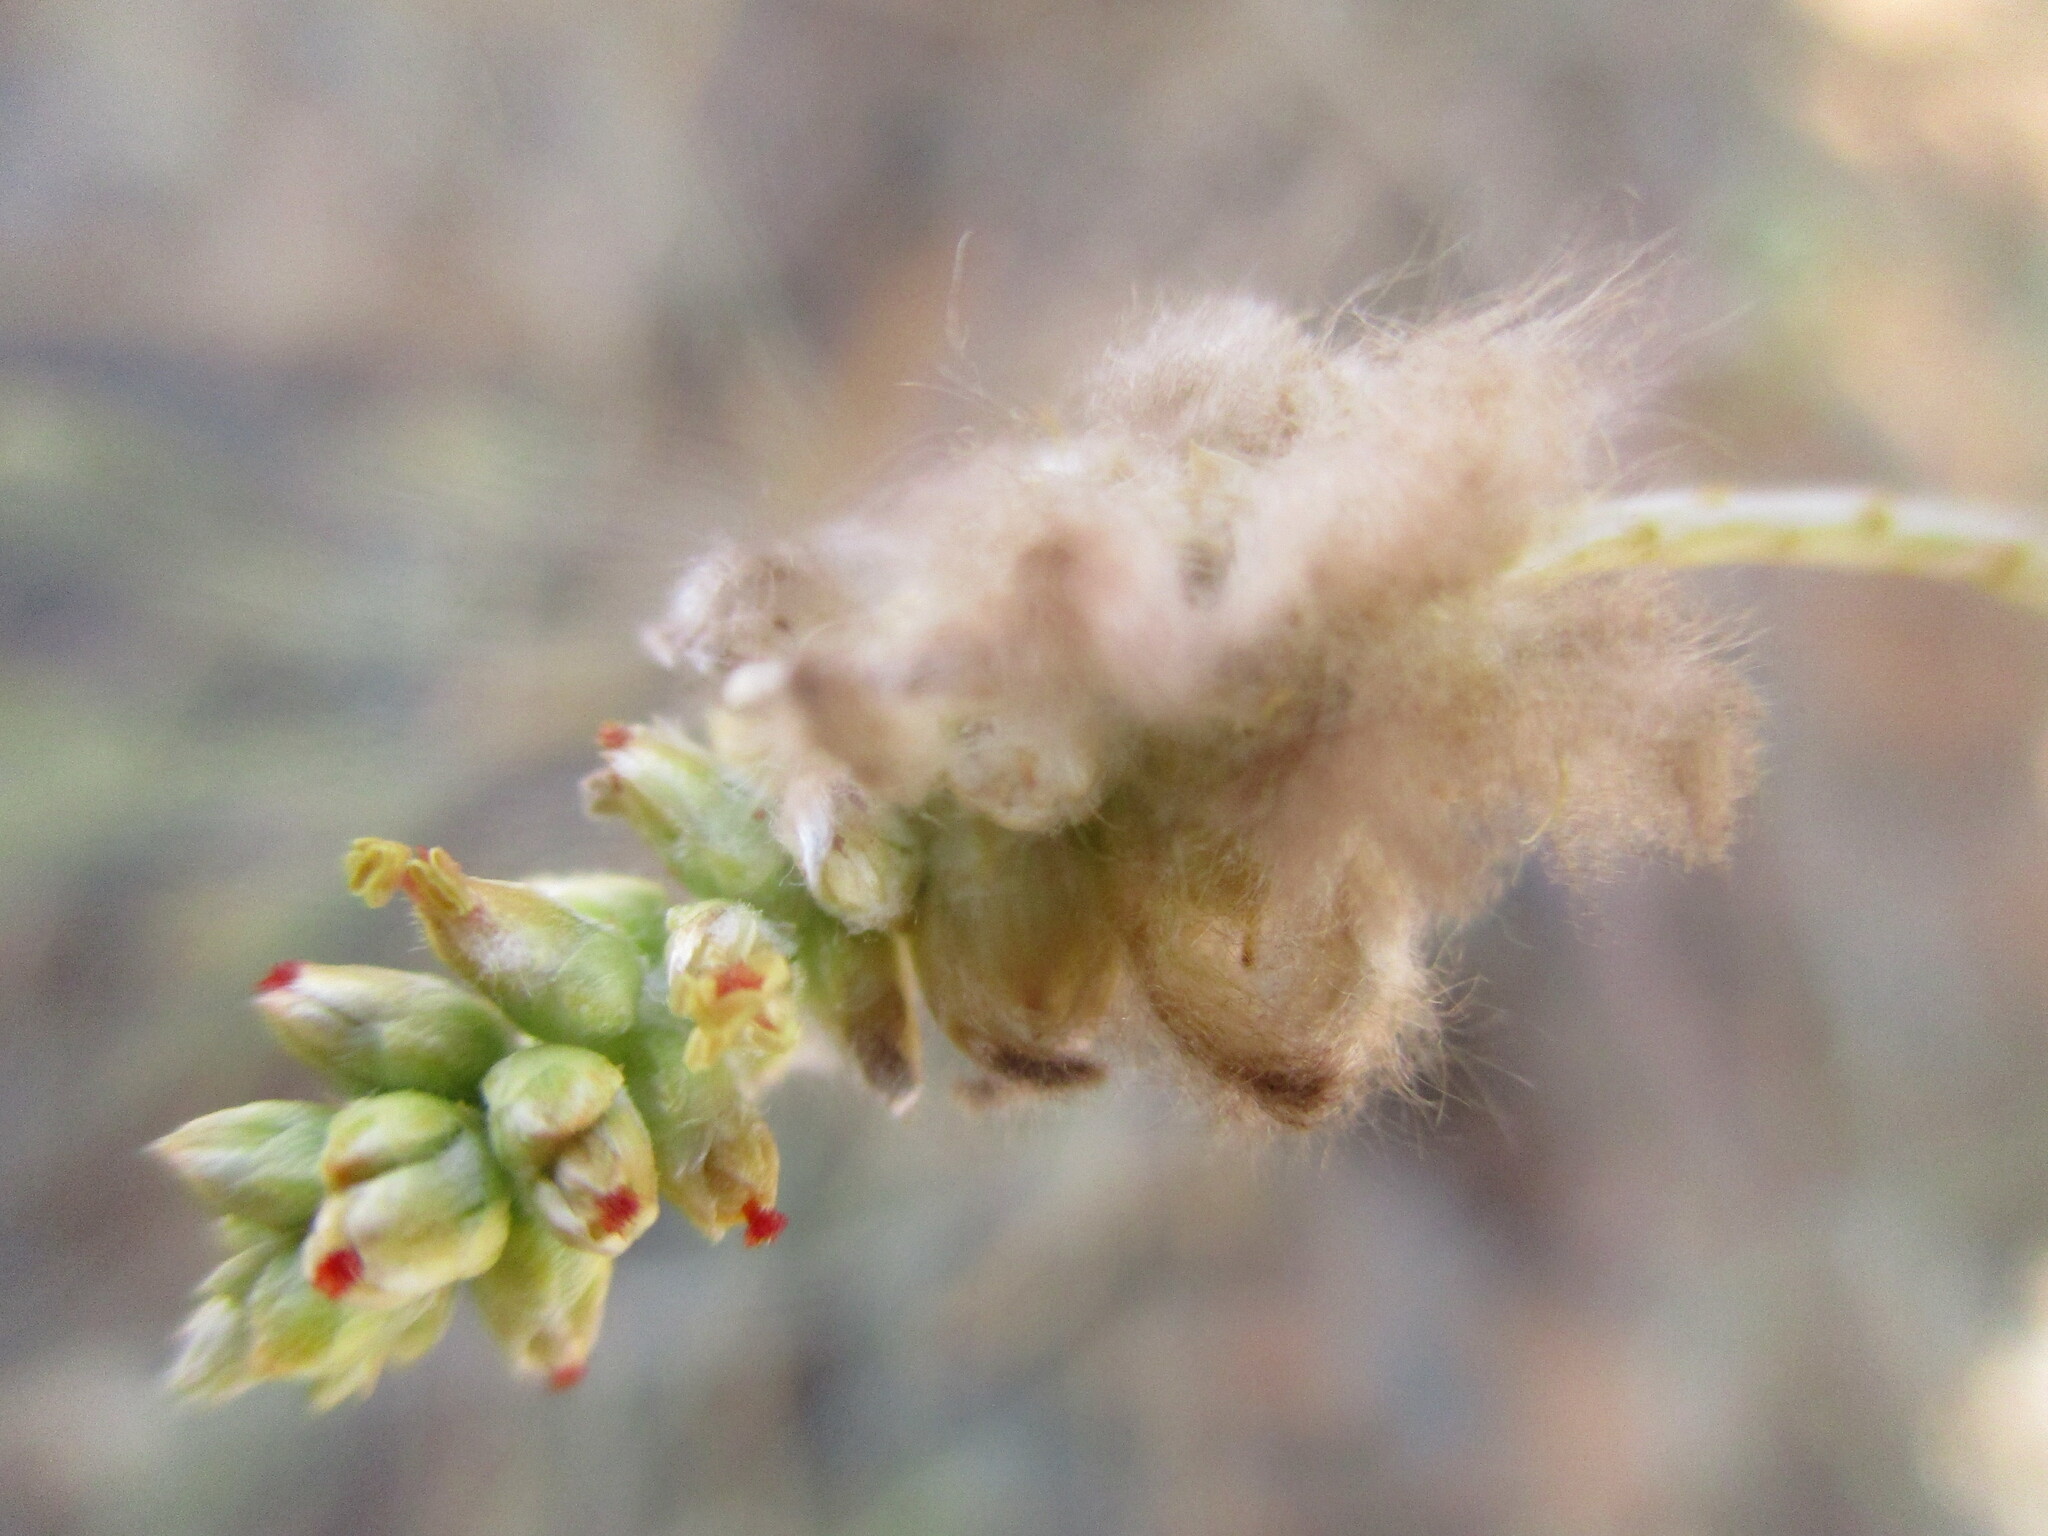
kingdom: Plantae
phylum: Tracheophyta
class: Magnoliopsida
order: Caryophyllales
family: Amaranthaceae
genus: Marcelliopsis
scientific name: Marcelliopsis denudata
